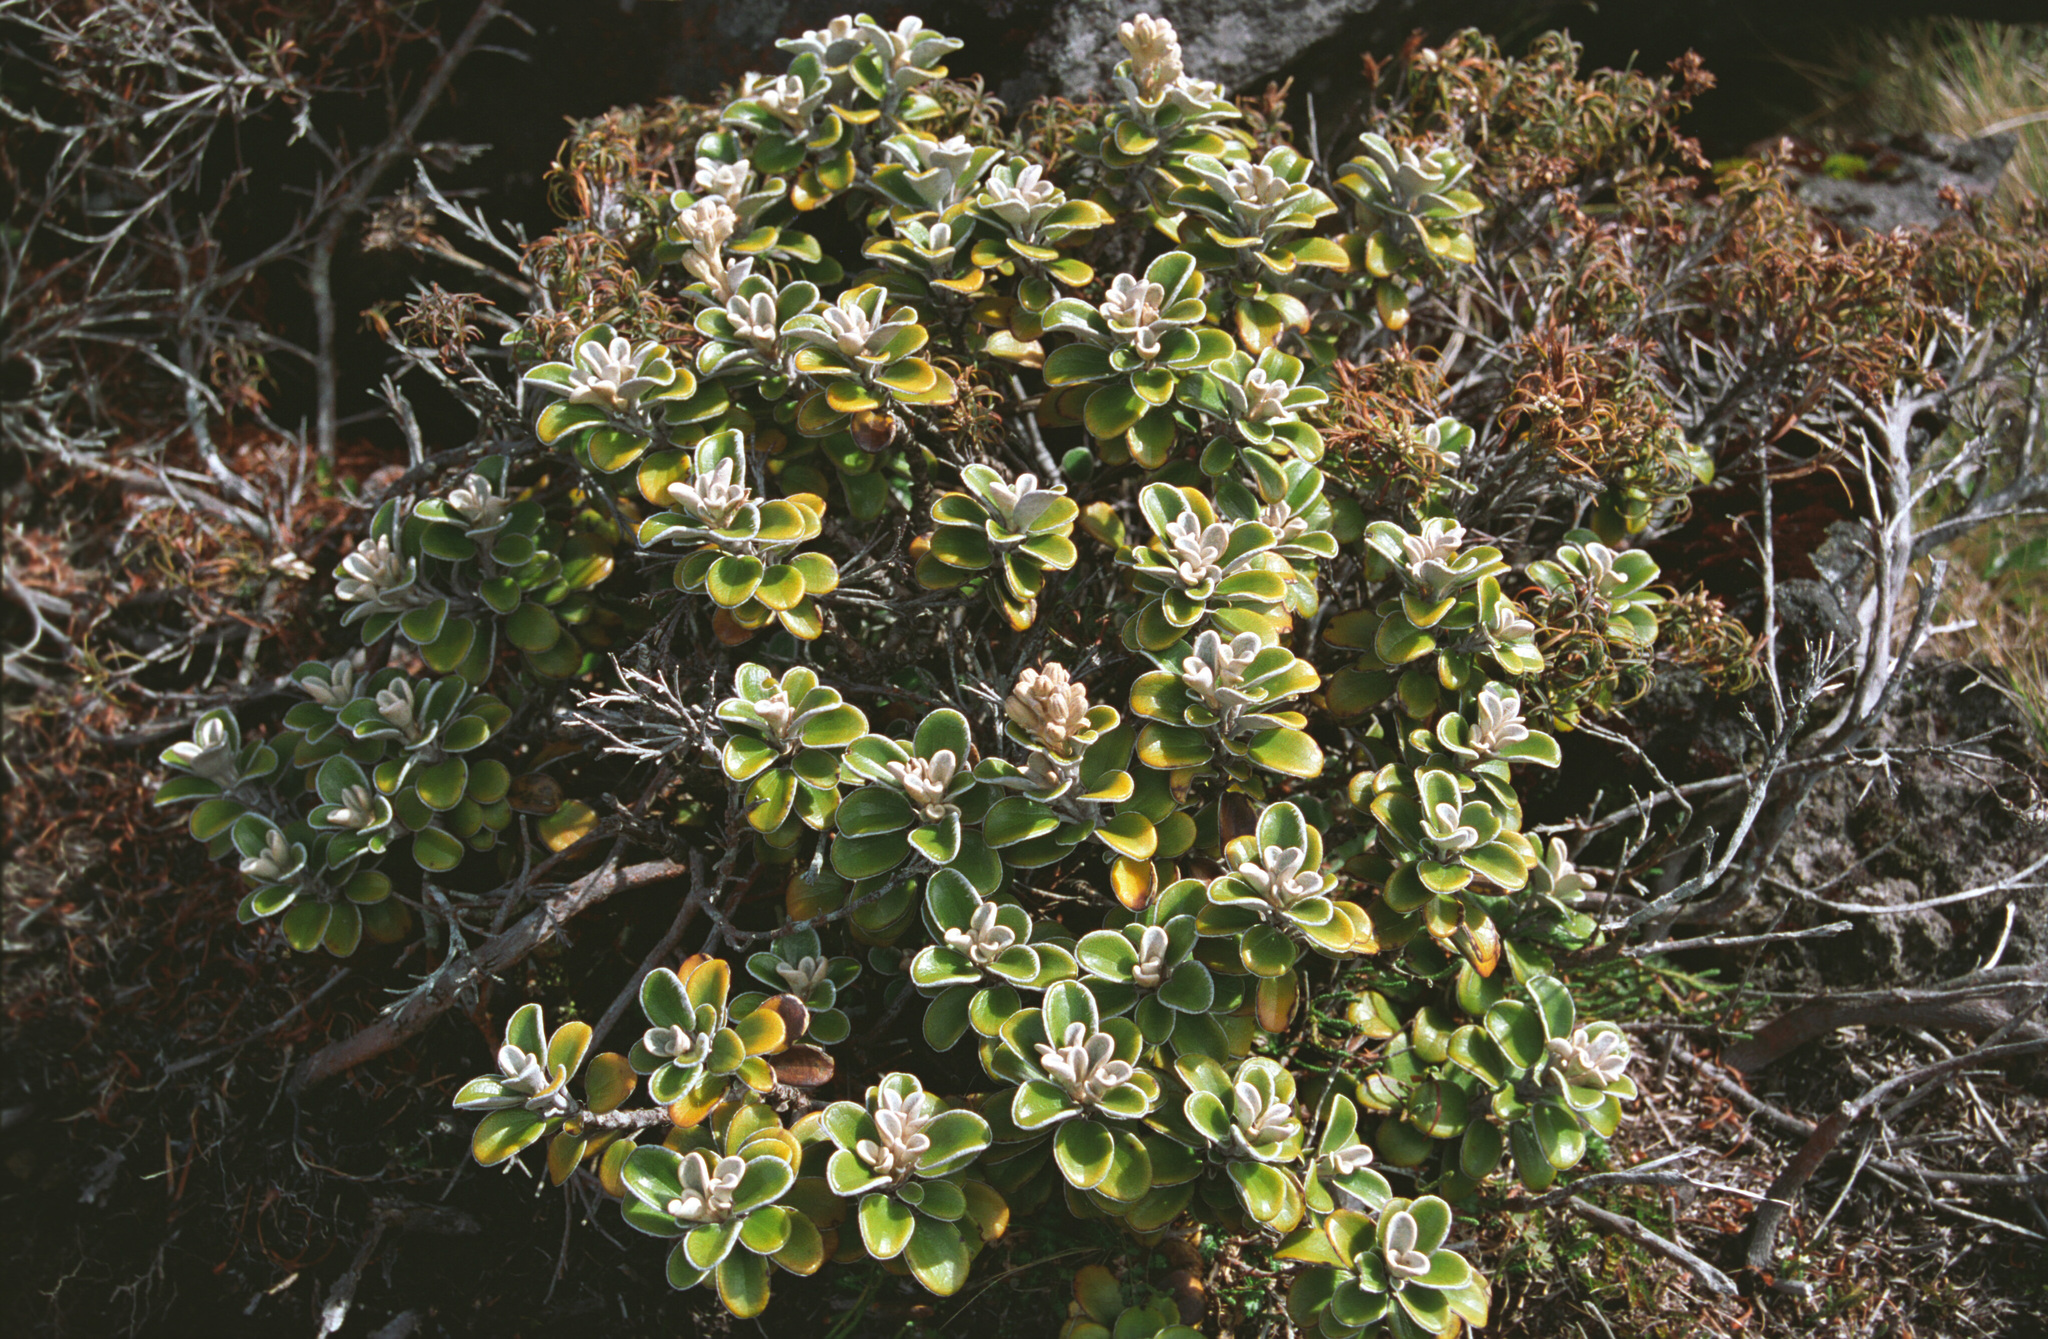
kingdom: Plantae
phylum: Tracheophyta
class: Magnoliopsida
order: Asterales
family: Asteraceae
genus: Brachyglottis
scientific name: Brachyglottis bidwillii
